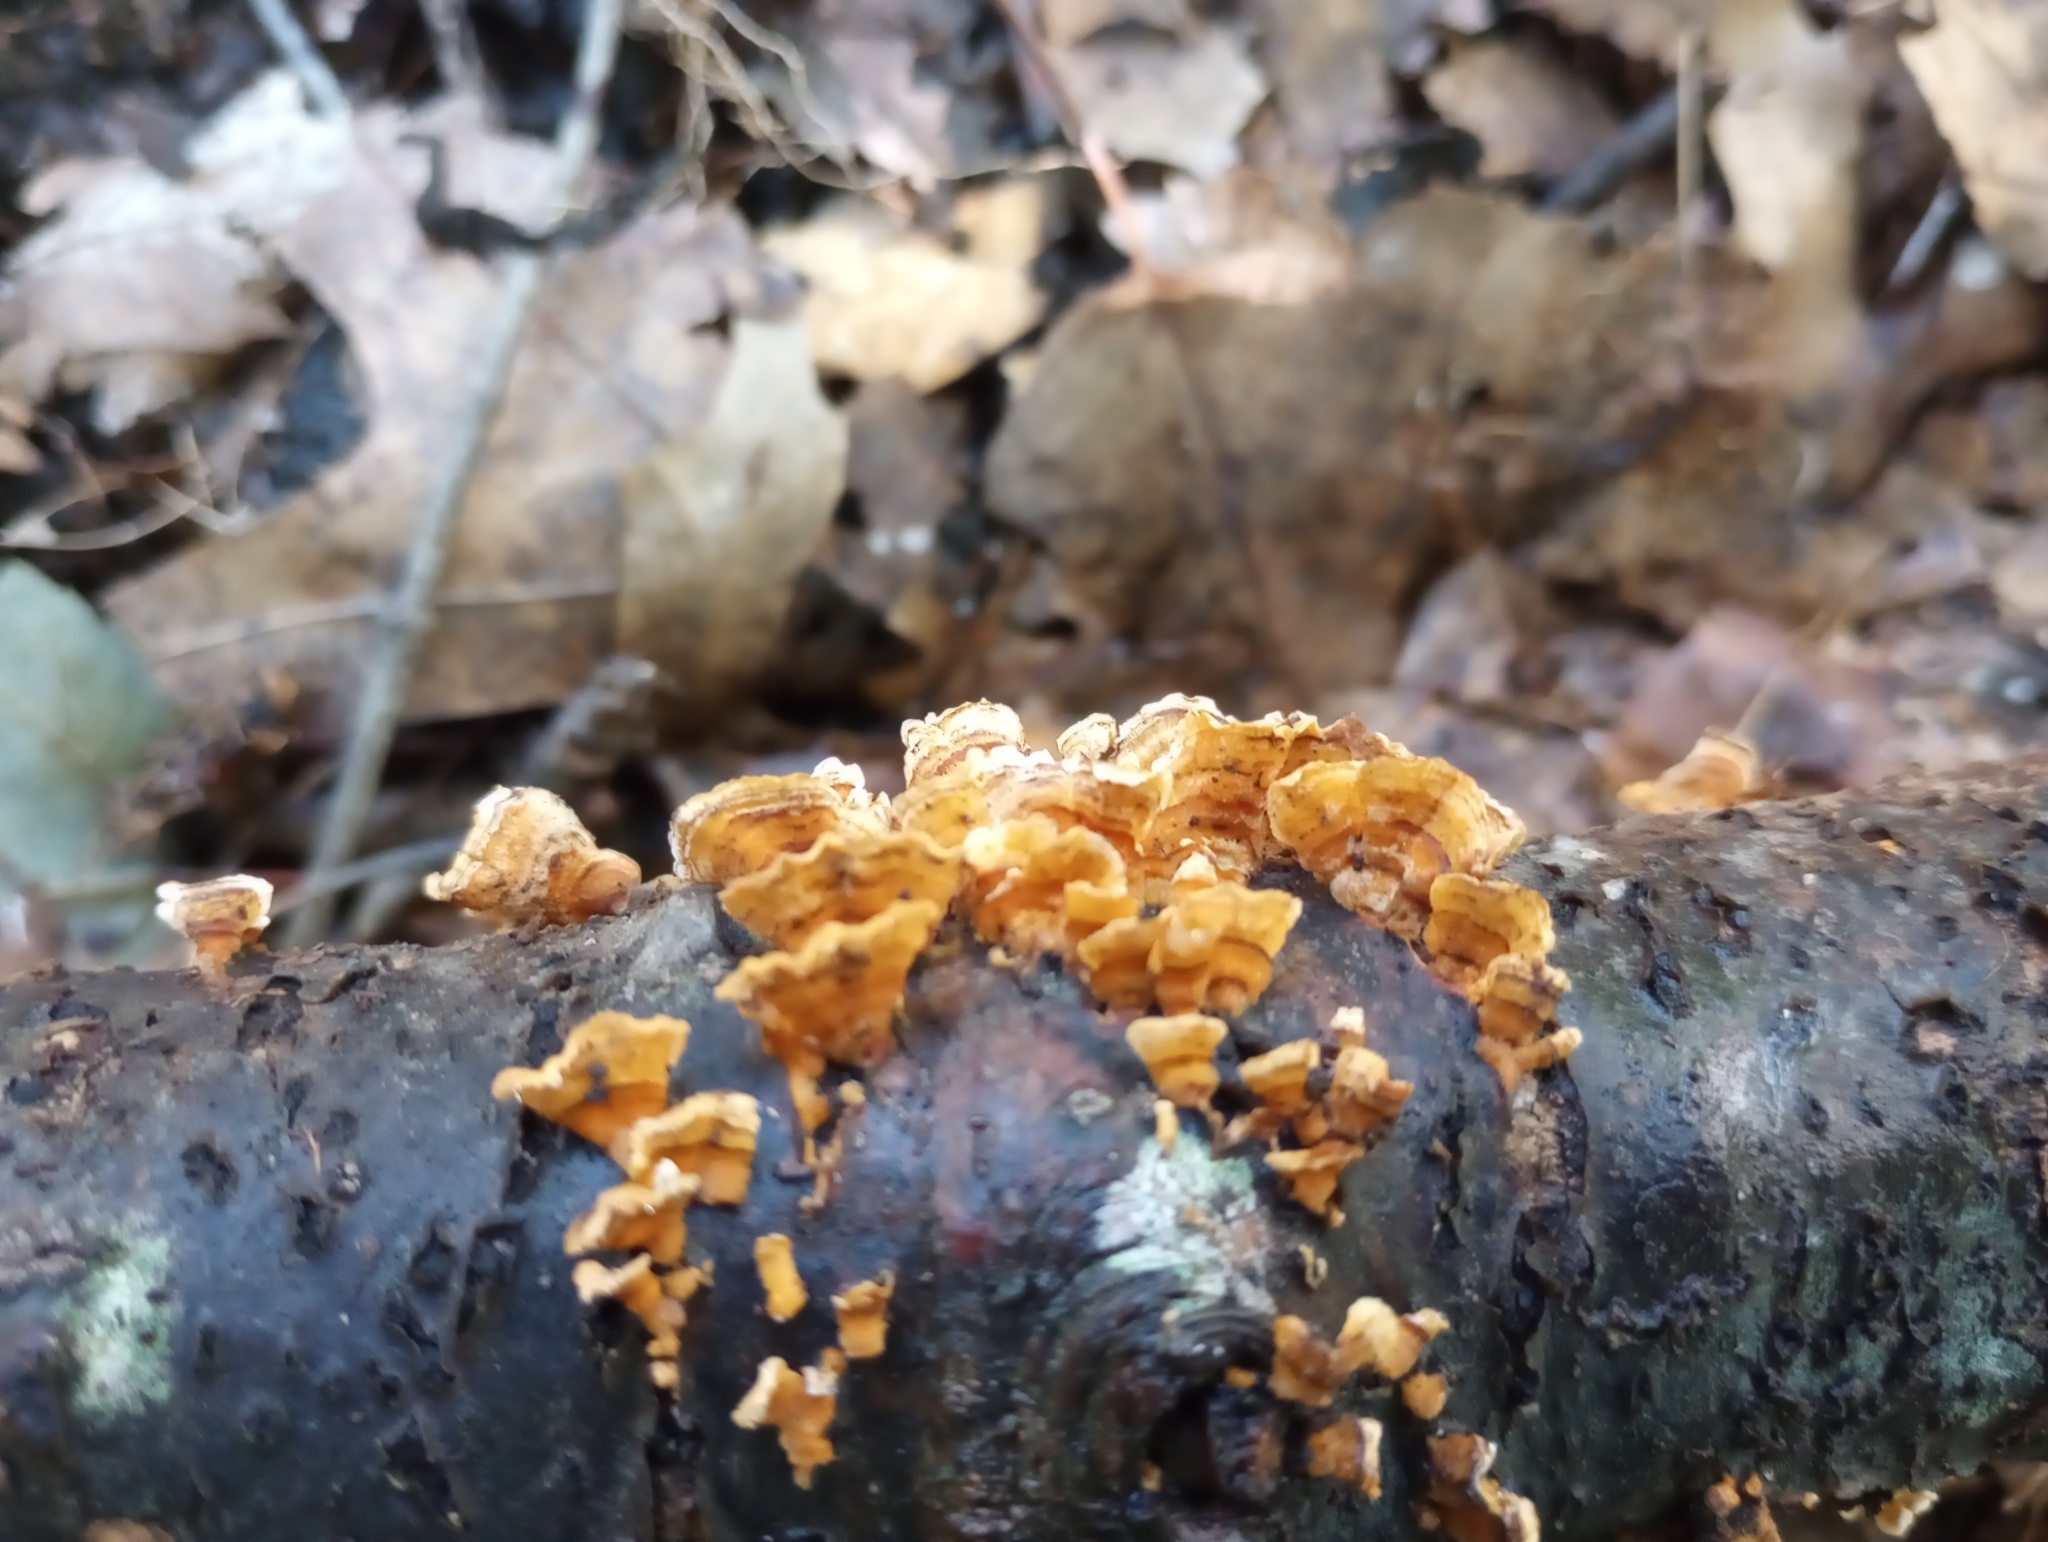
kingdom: Fungi
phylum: Basidiomycota
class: Agaricomycetes
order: Russulales
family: Stereaceae
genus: Stereum
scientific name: Stereum complicatum
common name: Crowded parchment
